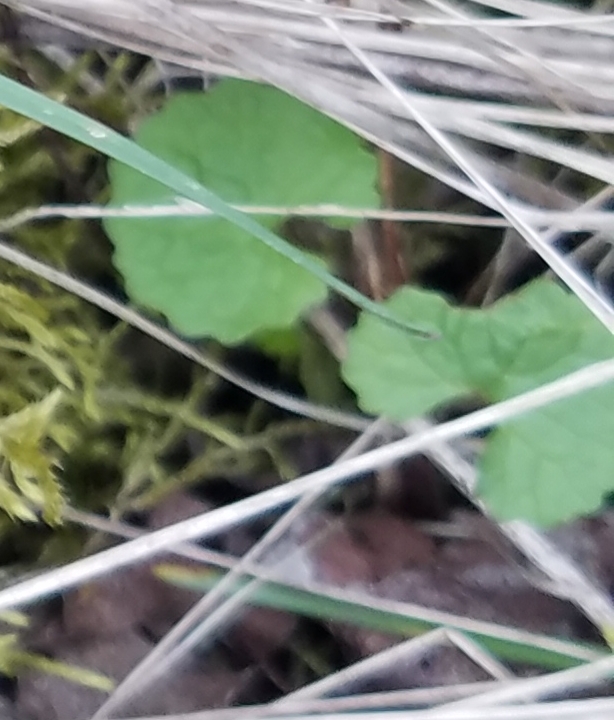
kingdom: Plantae
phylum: Tracheophyta
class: Magnoliopsida
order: Brassicales
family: Brassicaceae
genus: Alliaria
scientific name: Alliaria petiolata
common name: Garlic mustard
